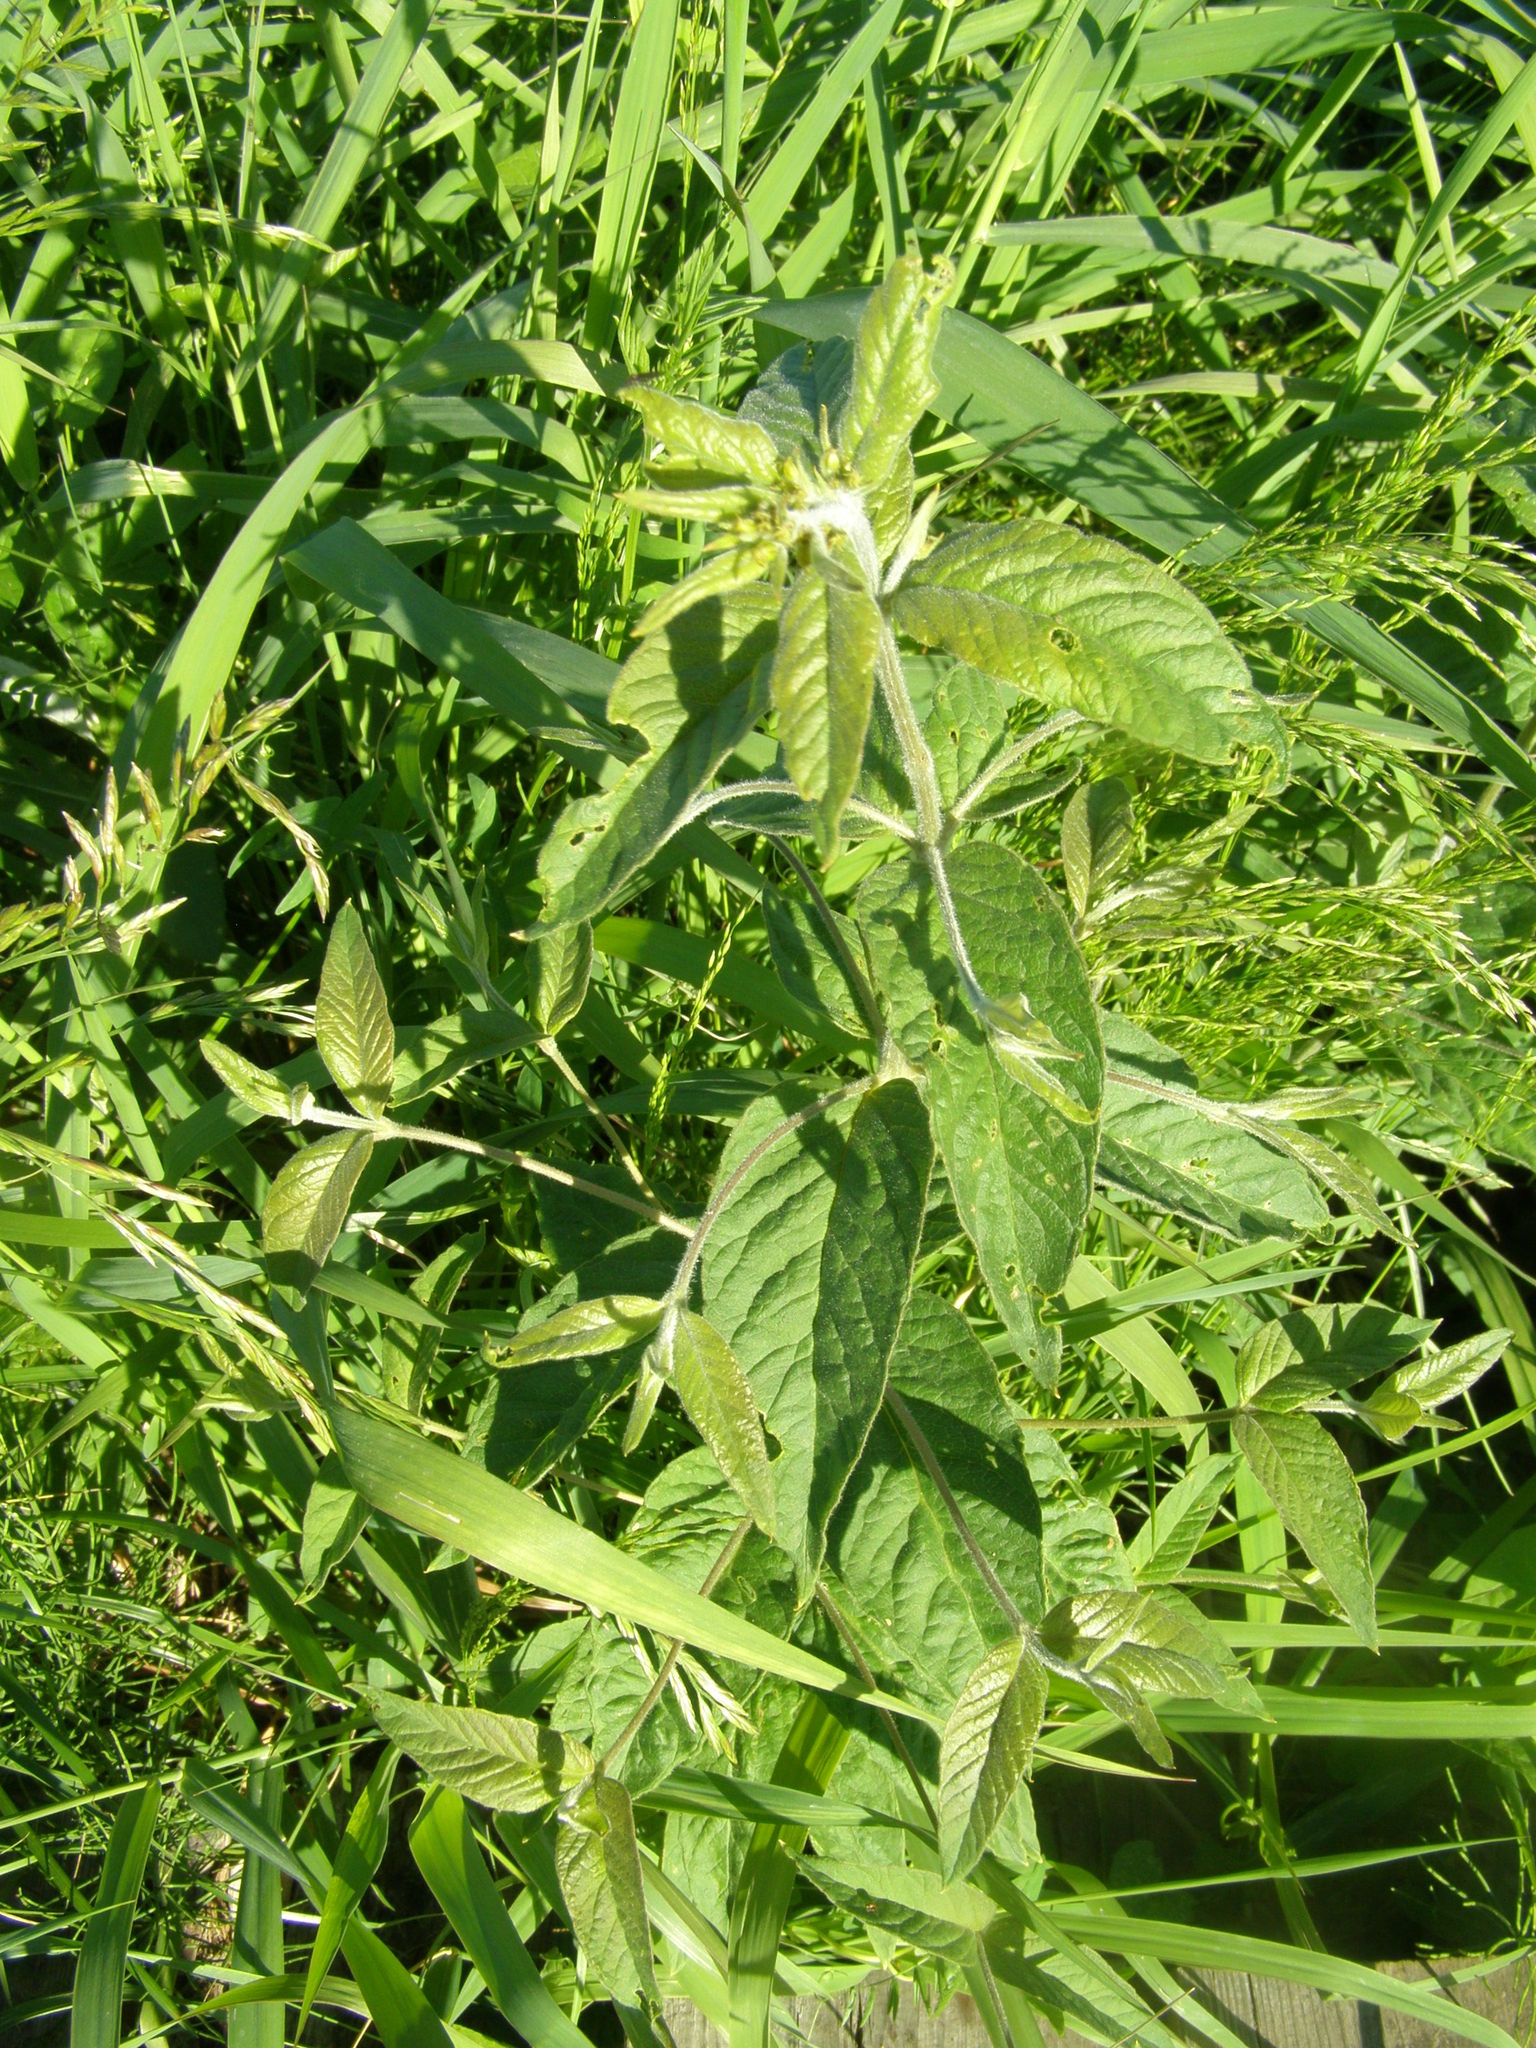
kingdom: Plantae
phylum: Tracheophyta
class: Magnoliopsida
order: Ericales
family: Primulaceae
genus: Lysimachia
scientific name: Lysimachia vulgaris
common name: Yellow loosestrife
